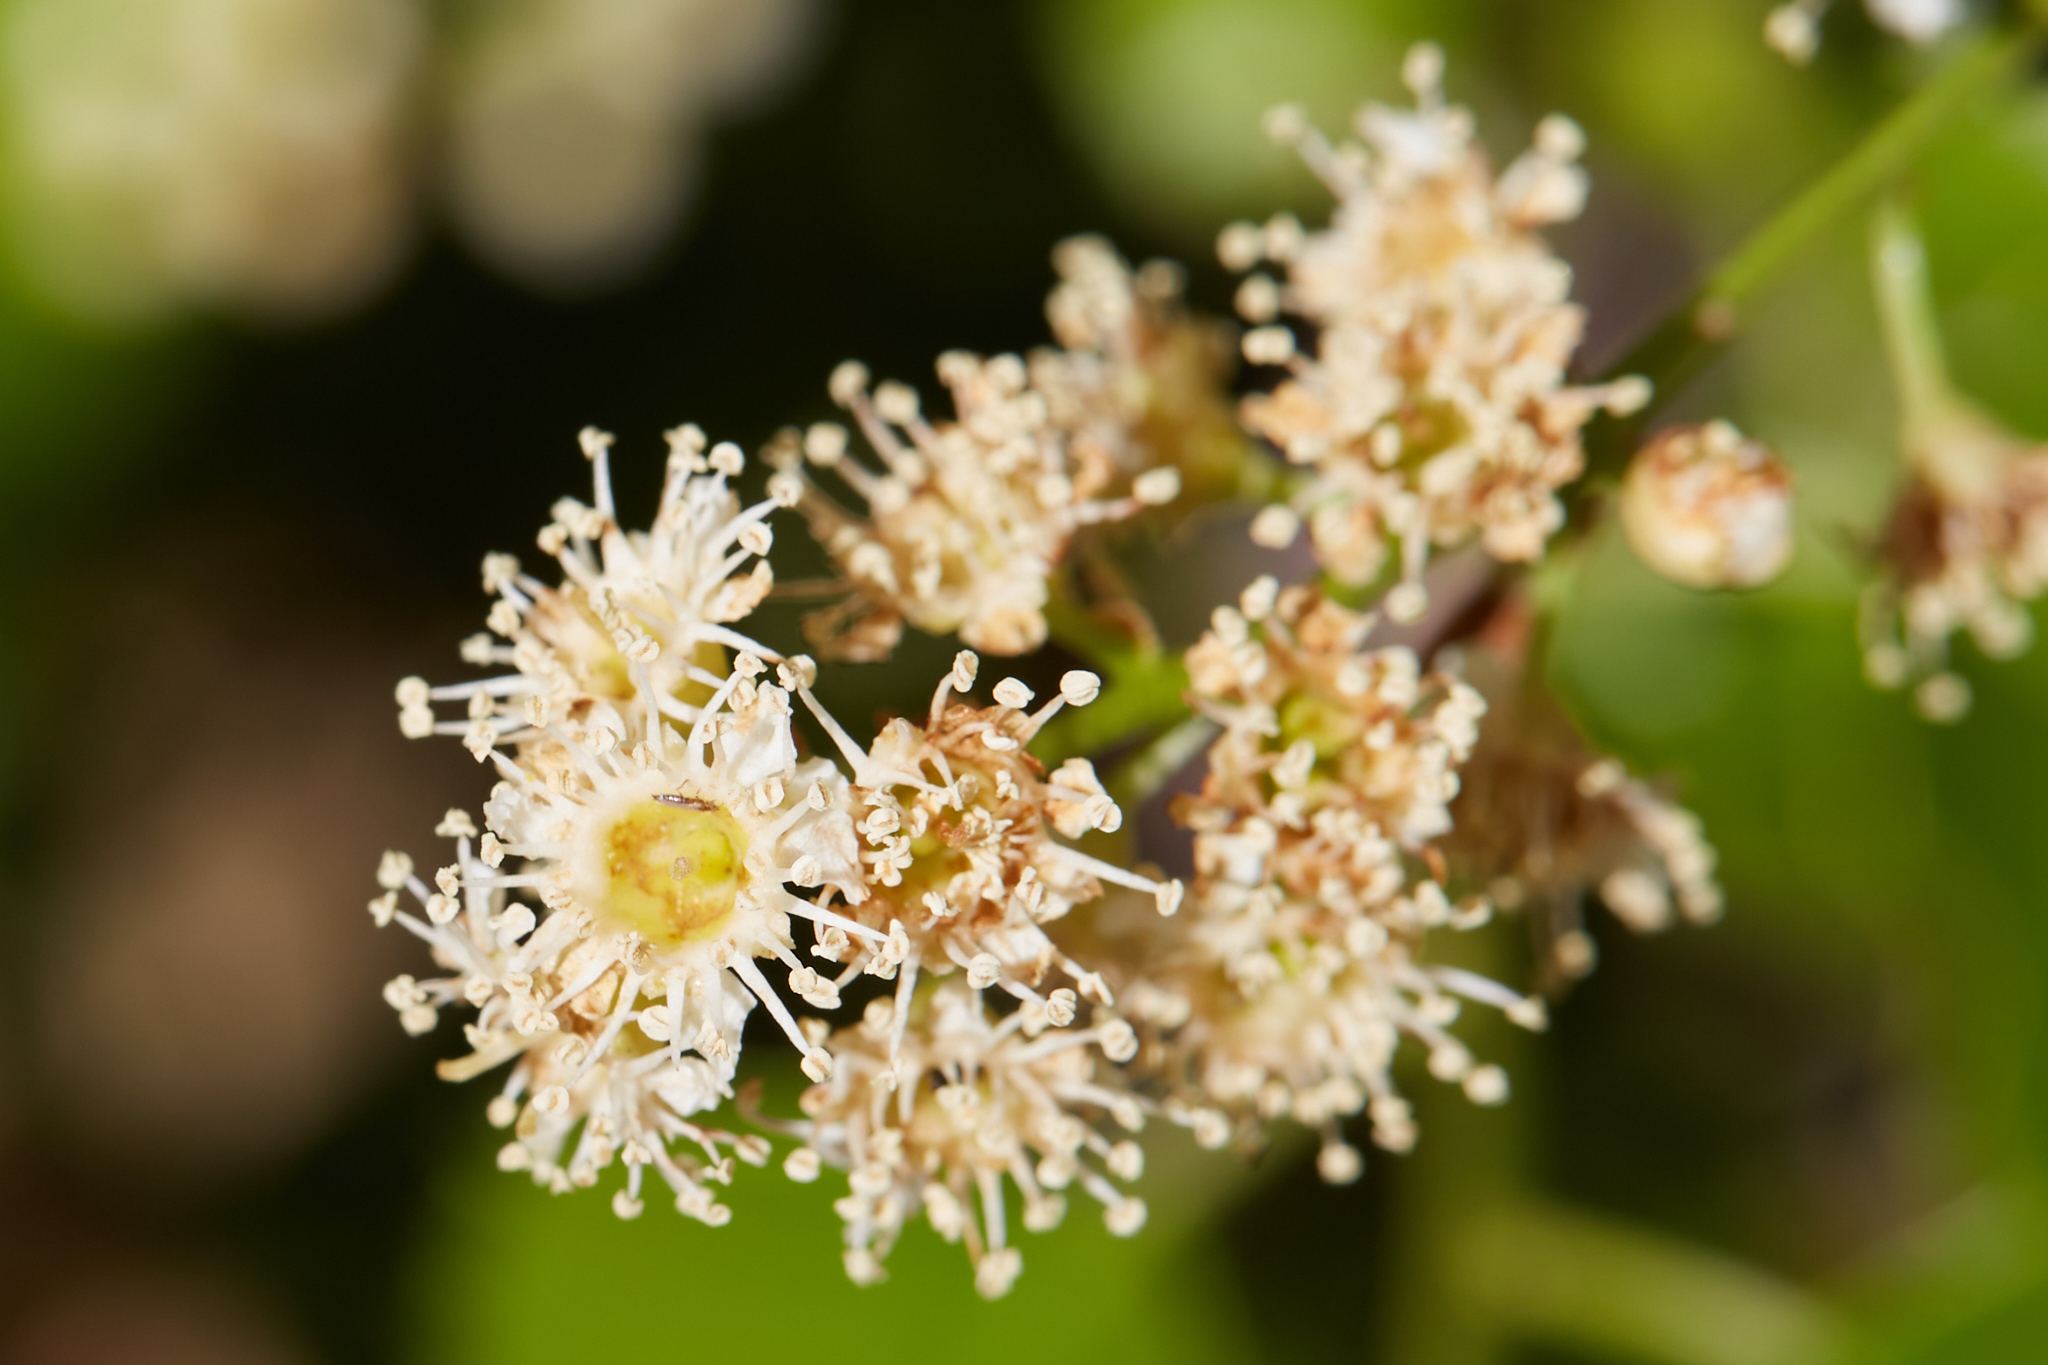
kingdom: Plantae
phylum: Tracheophyta
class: Magnoliopsida
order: Rosales
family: Rosaceae
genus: Prunus
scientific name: Prunus ilicifolia
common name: Hollyleaf cherry
